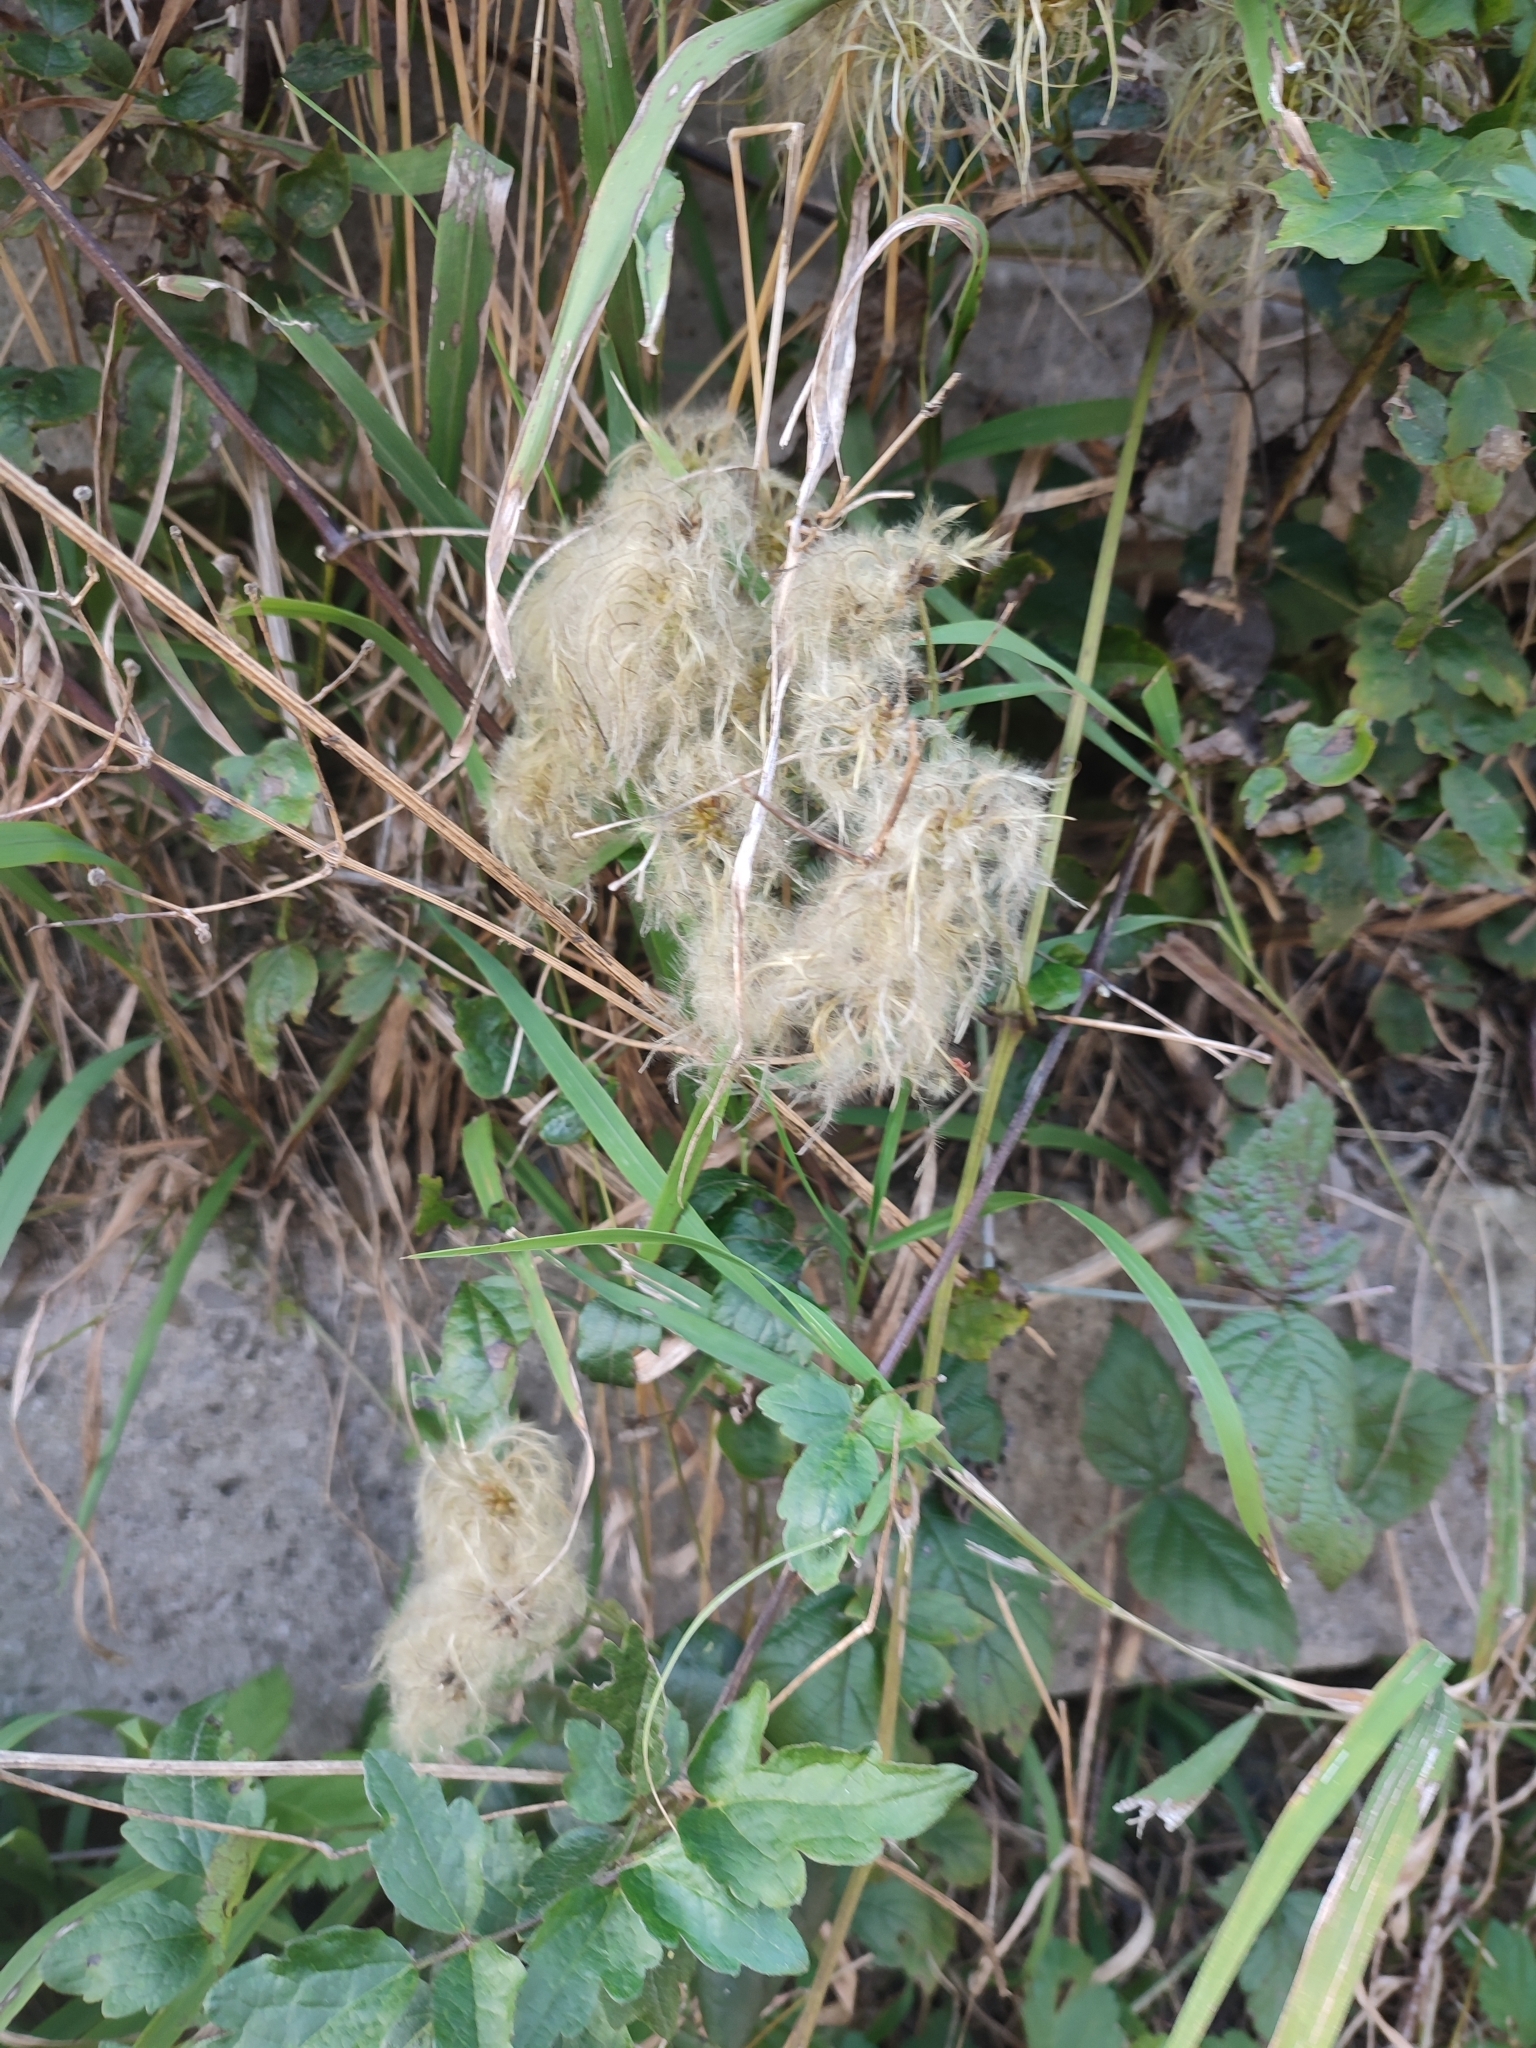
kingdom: Plantae
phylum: Tracheophyta
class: Magnoliopsida
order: Ranunculales
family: Ranunculaceae
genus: Clematis
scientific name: Clematis vitalba
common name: Evergreen clematis
